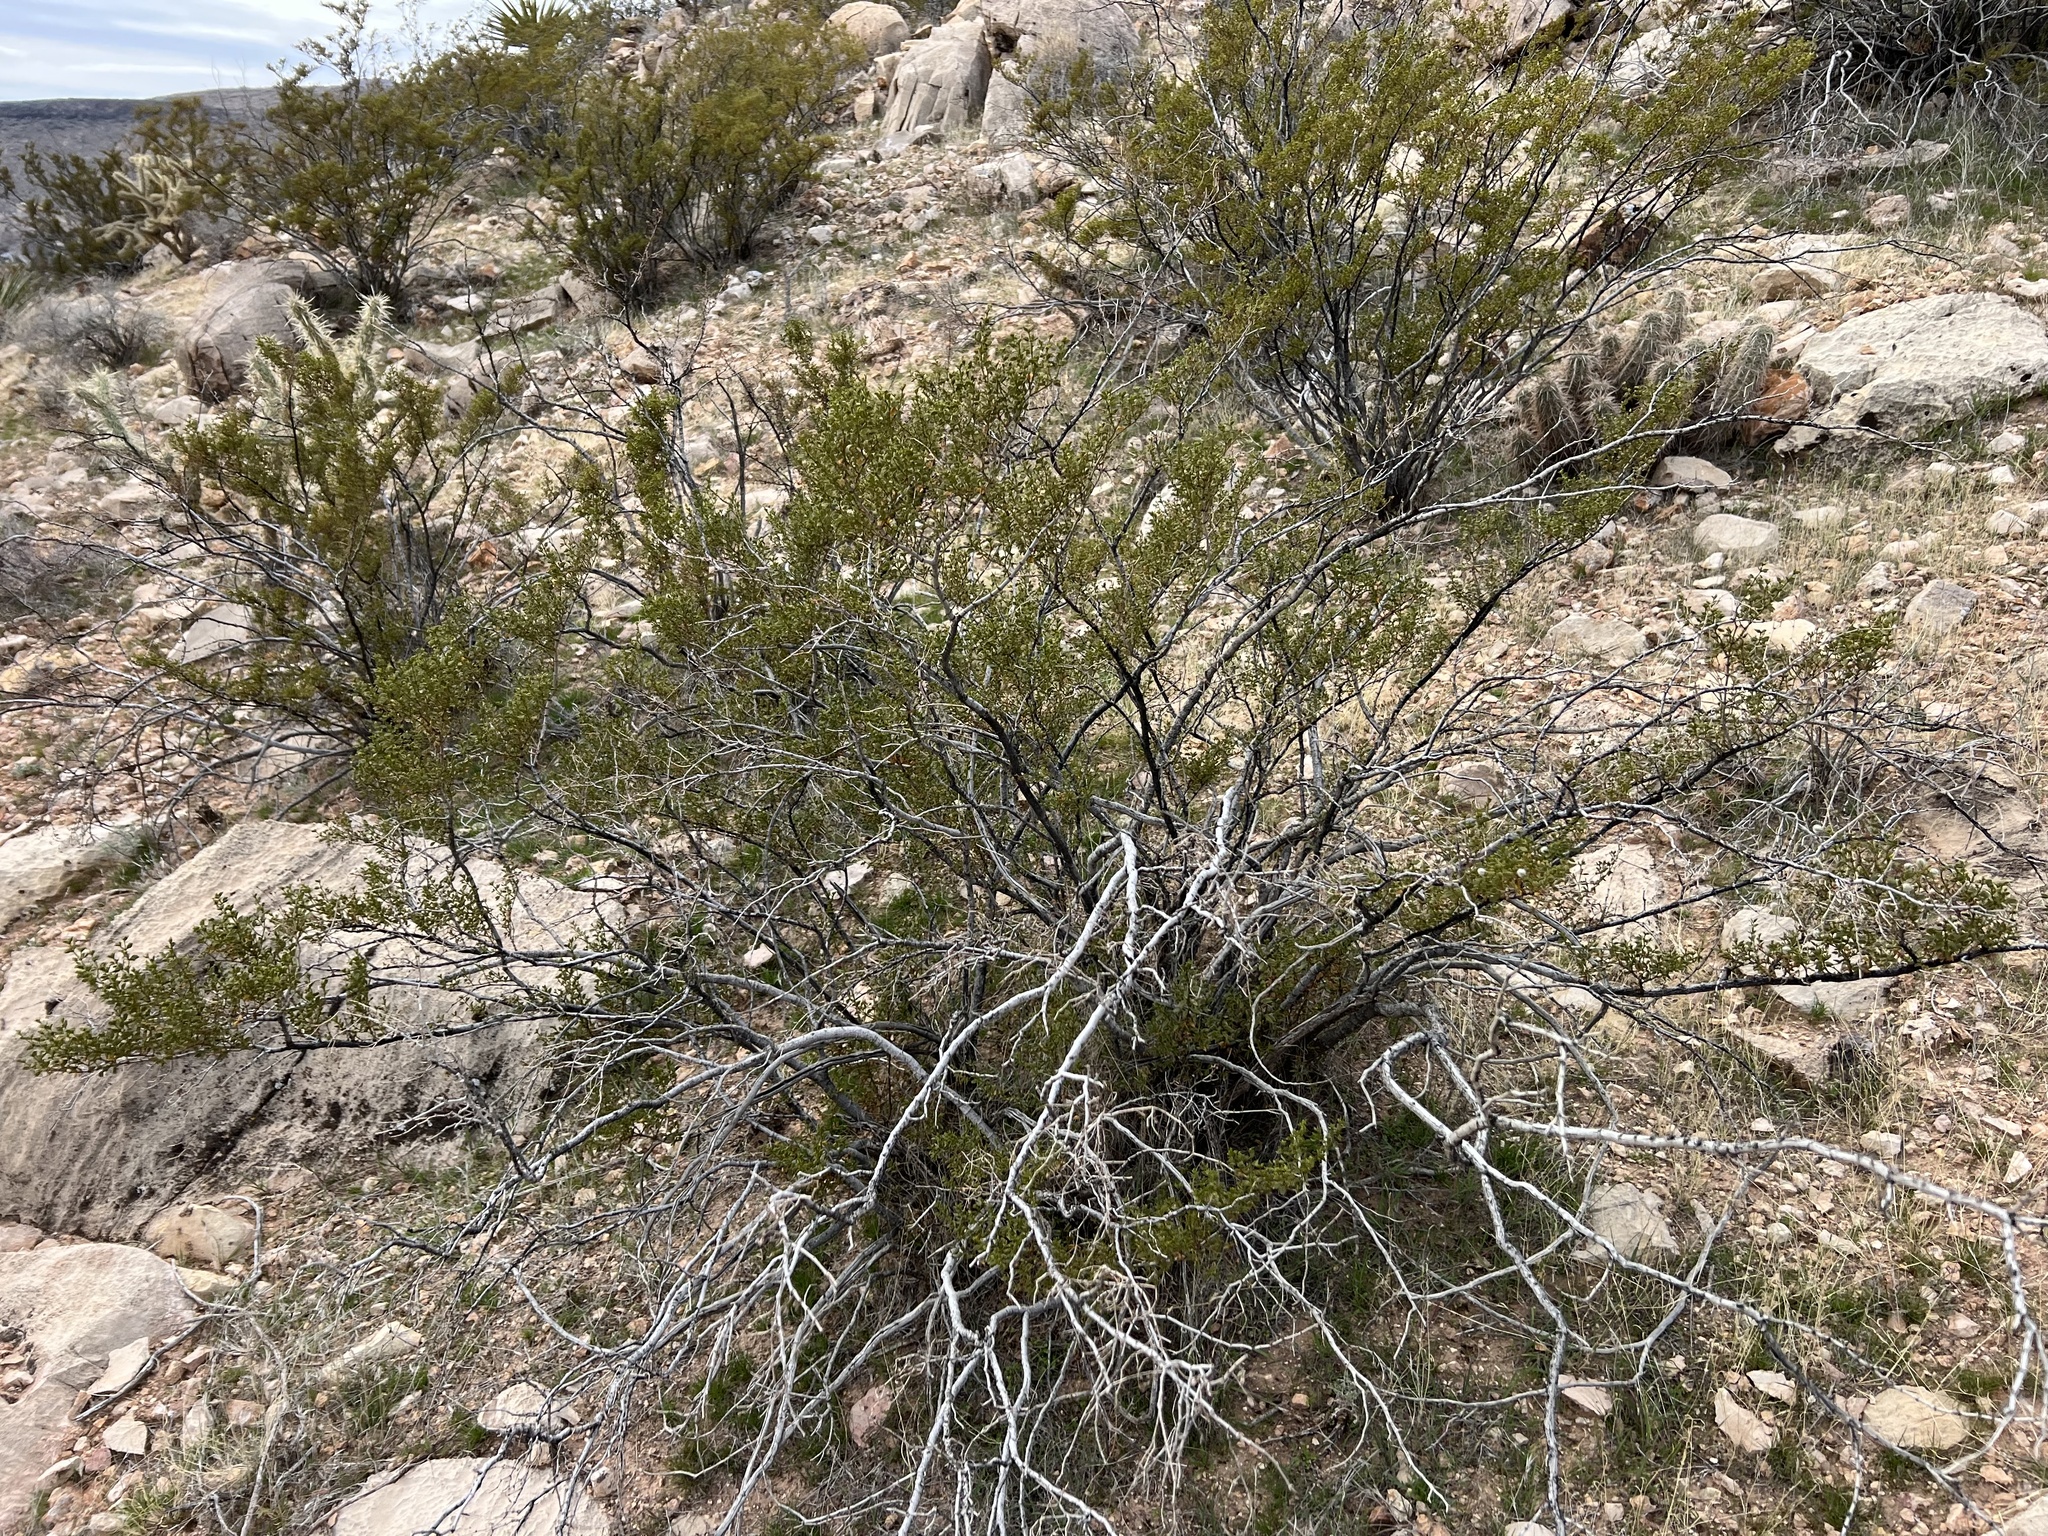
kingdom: Plantae
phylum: Tracheophyta
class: Magnoliopsida
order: Zygophyllales
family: Zygophyllaceae
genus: Larrea
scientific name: Larrea tridentata
